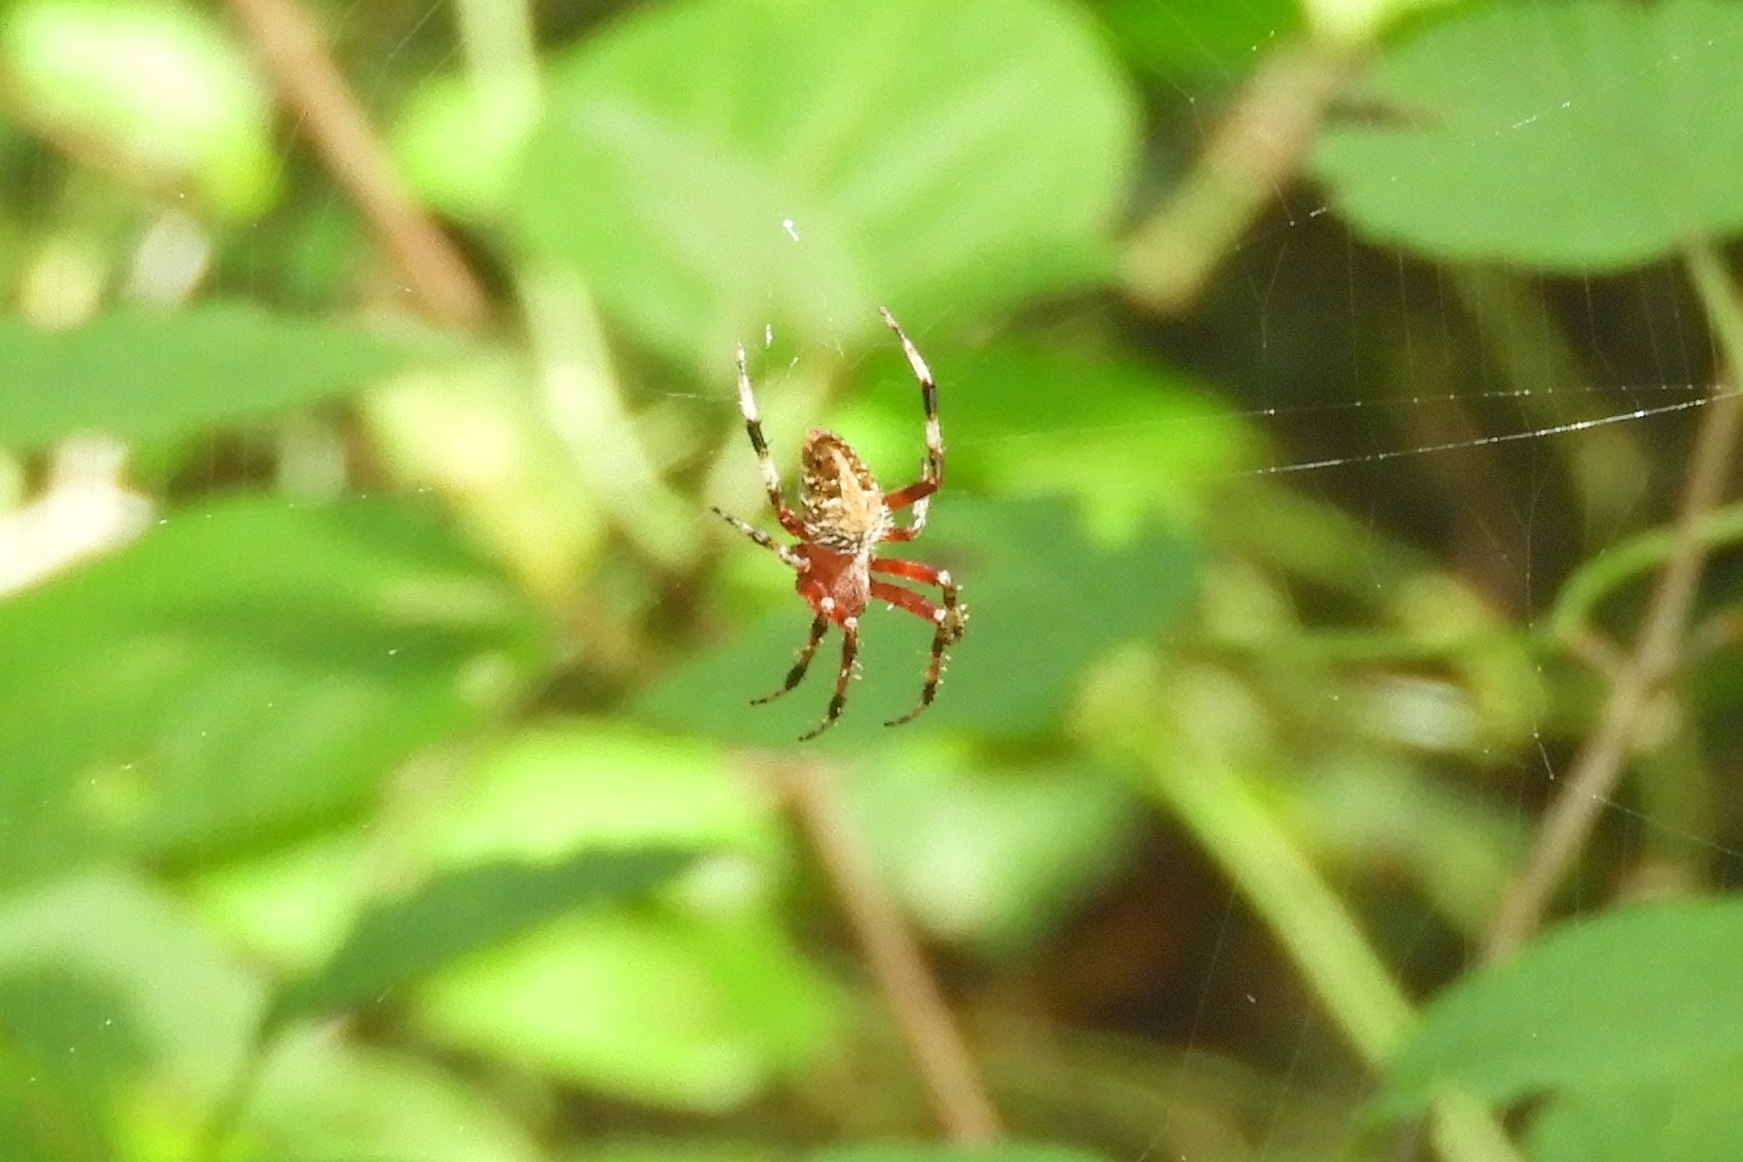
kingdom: Animalia
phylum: Arthropoda
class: Arachnida
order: Araneae
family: Araneidae
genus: Neoscona
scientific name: Neoscona domiciliorum
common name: Red-femured spotted orbweaver
